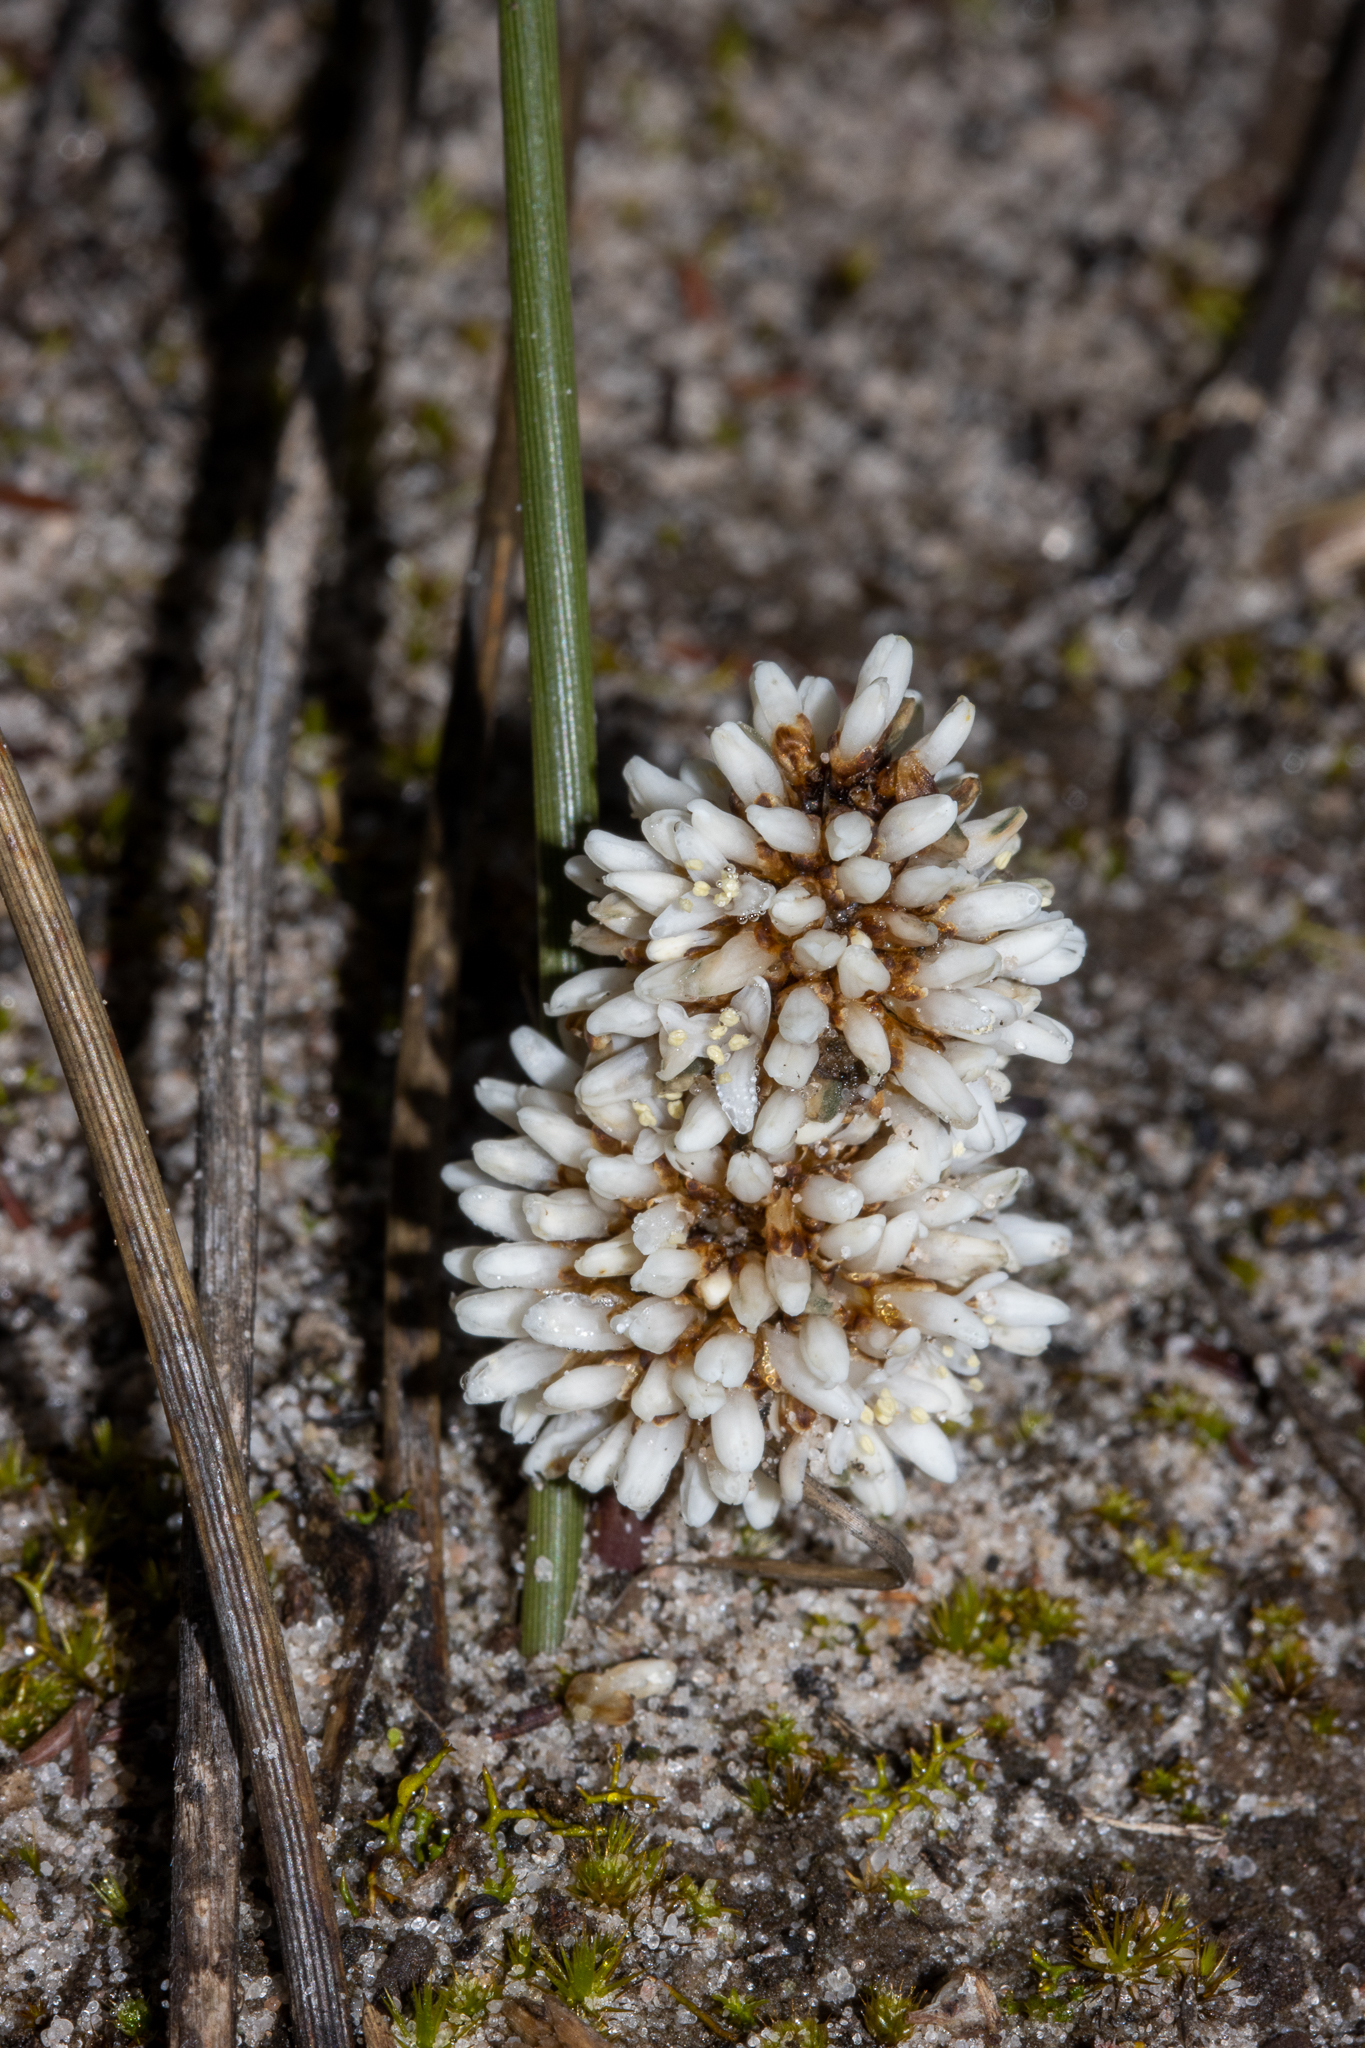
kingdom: Plantae
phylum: Tracheophyta
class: Liliopsida
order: Asparagales
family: Asparagaceae
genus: Lomandra
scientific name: Lomandra juncea
